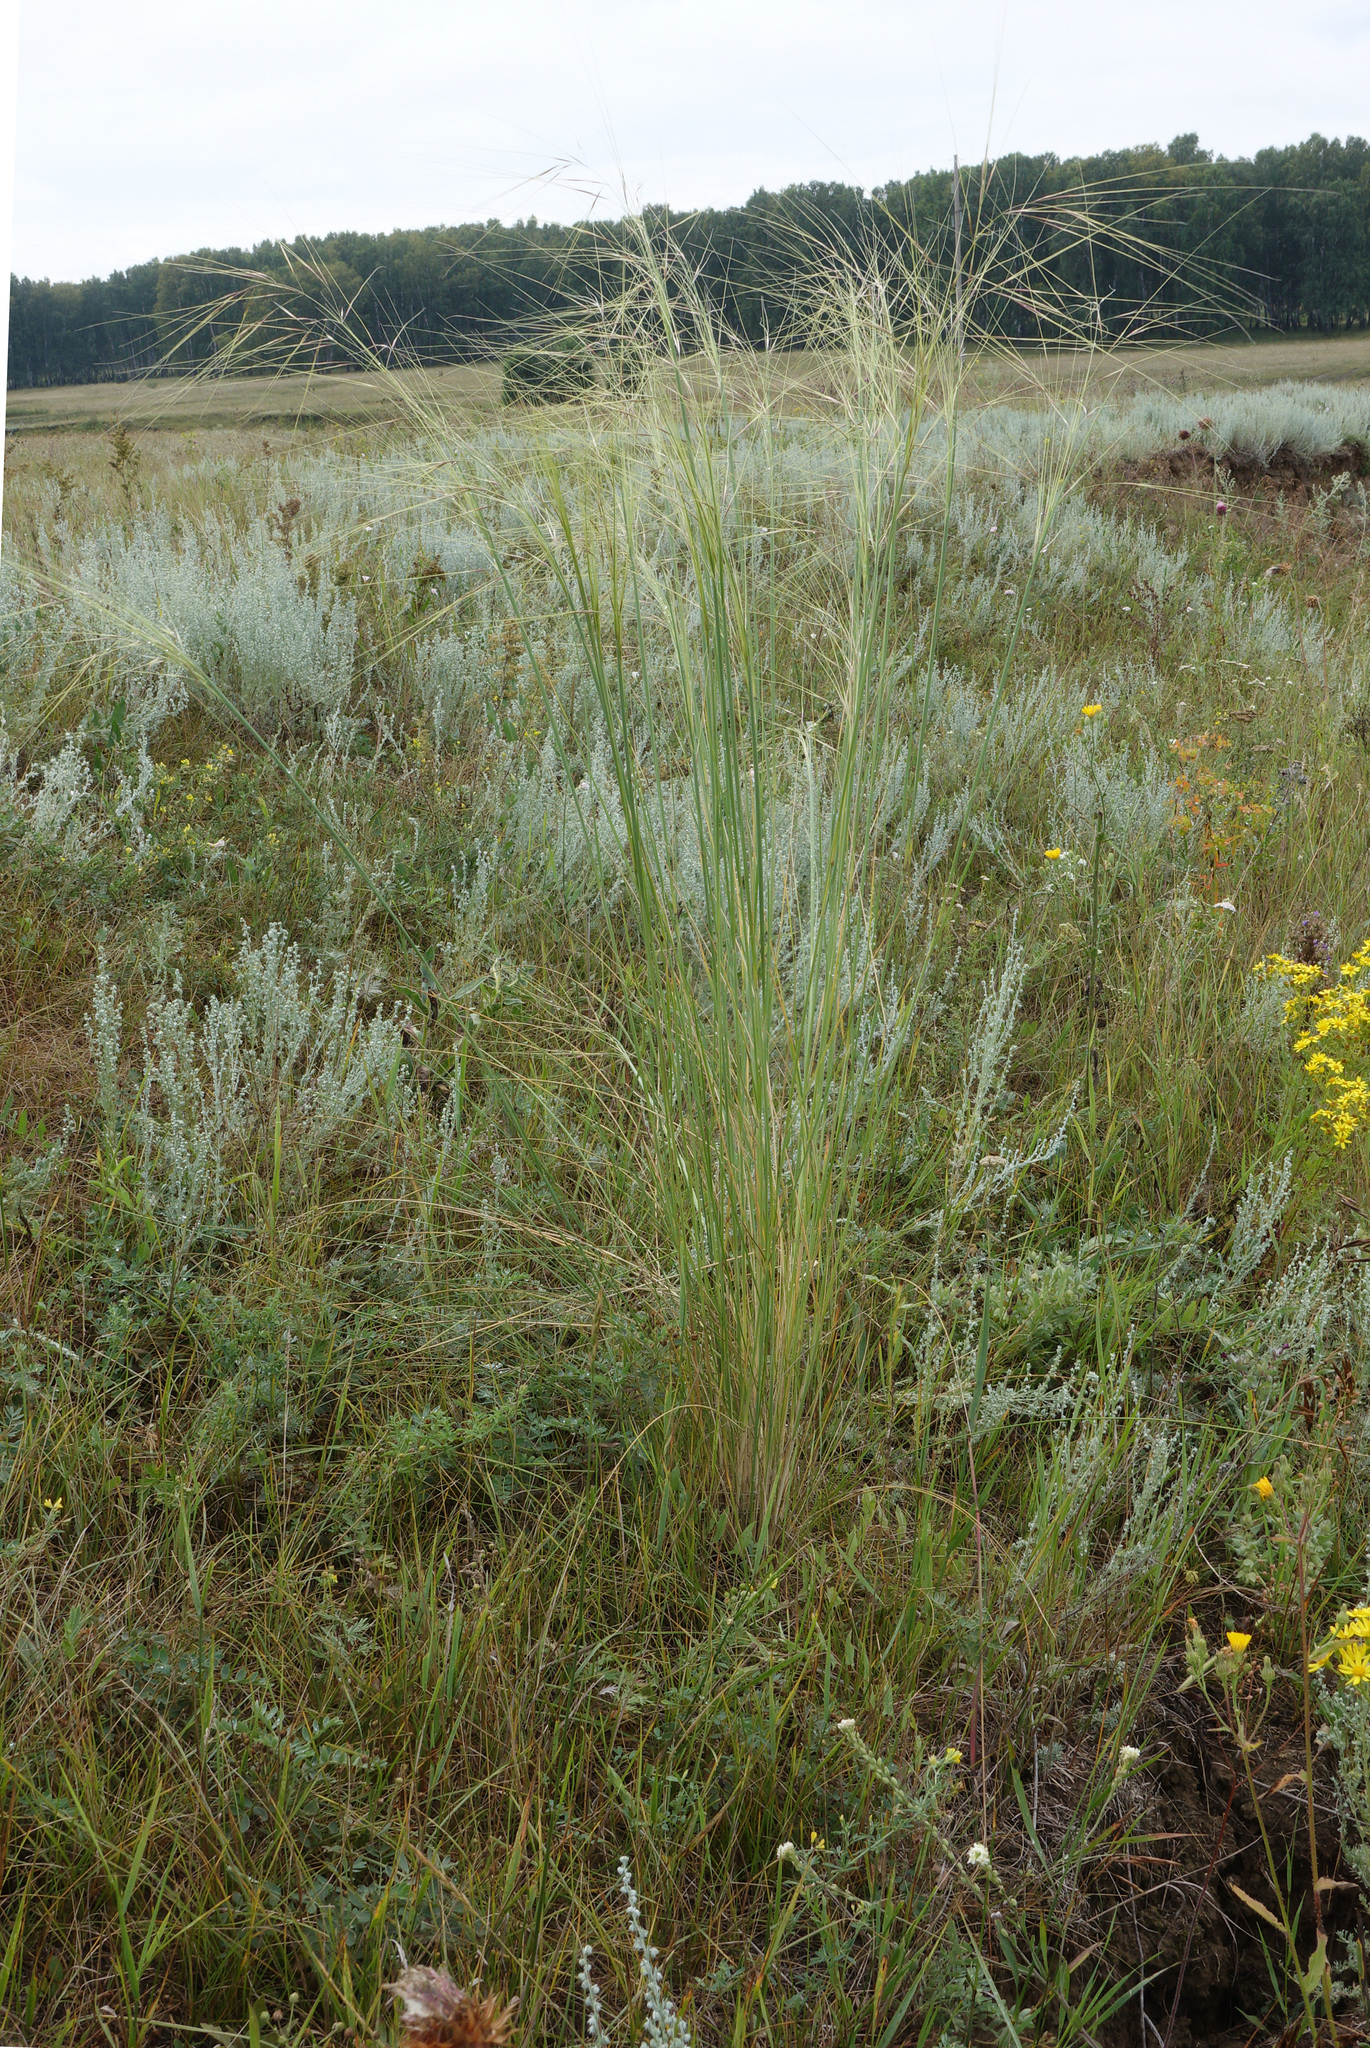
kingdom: Plantae
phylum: Tracheophyta
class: Liliopsida
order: Poales
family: Poaceae
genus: Stipa
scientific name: Stipa capillata
